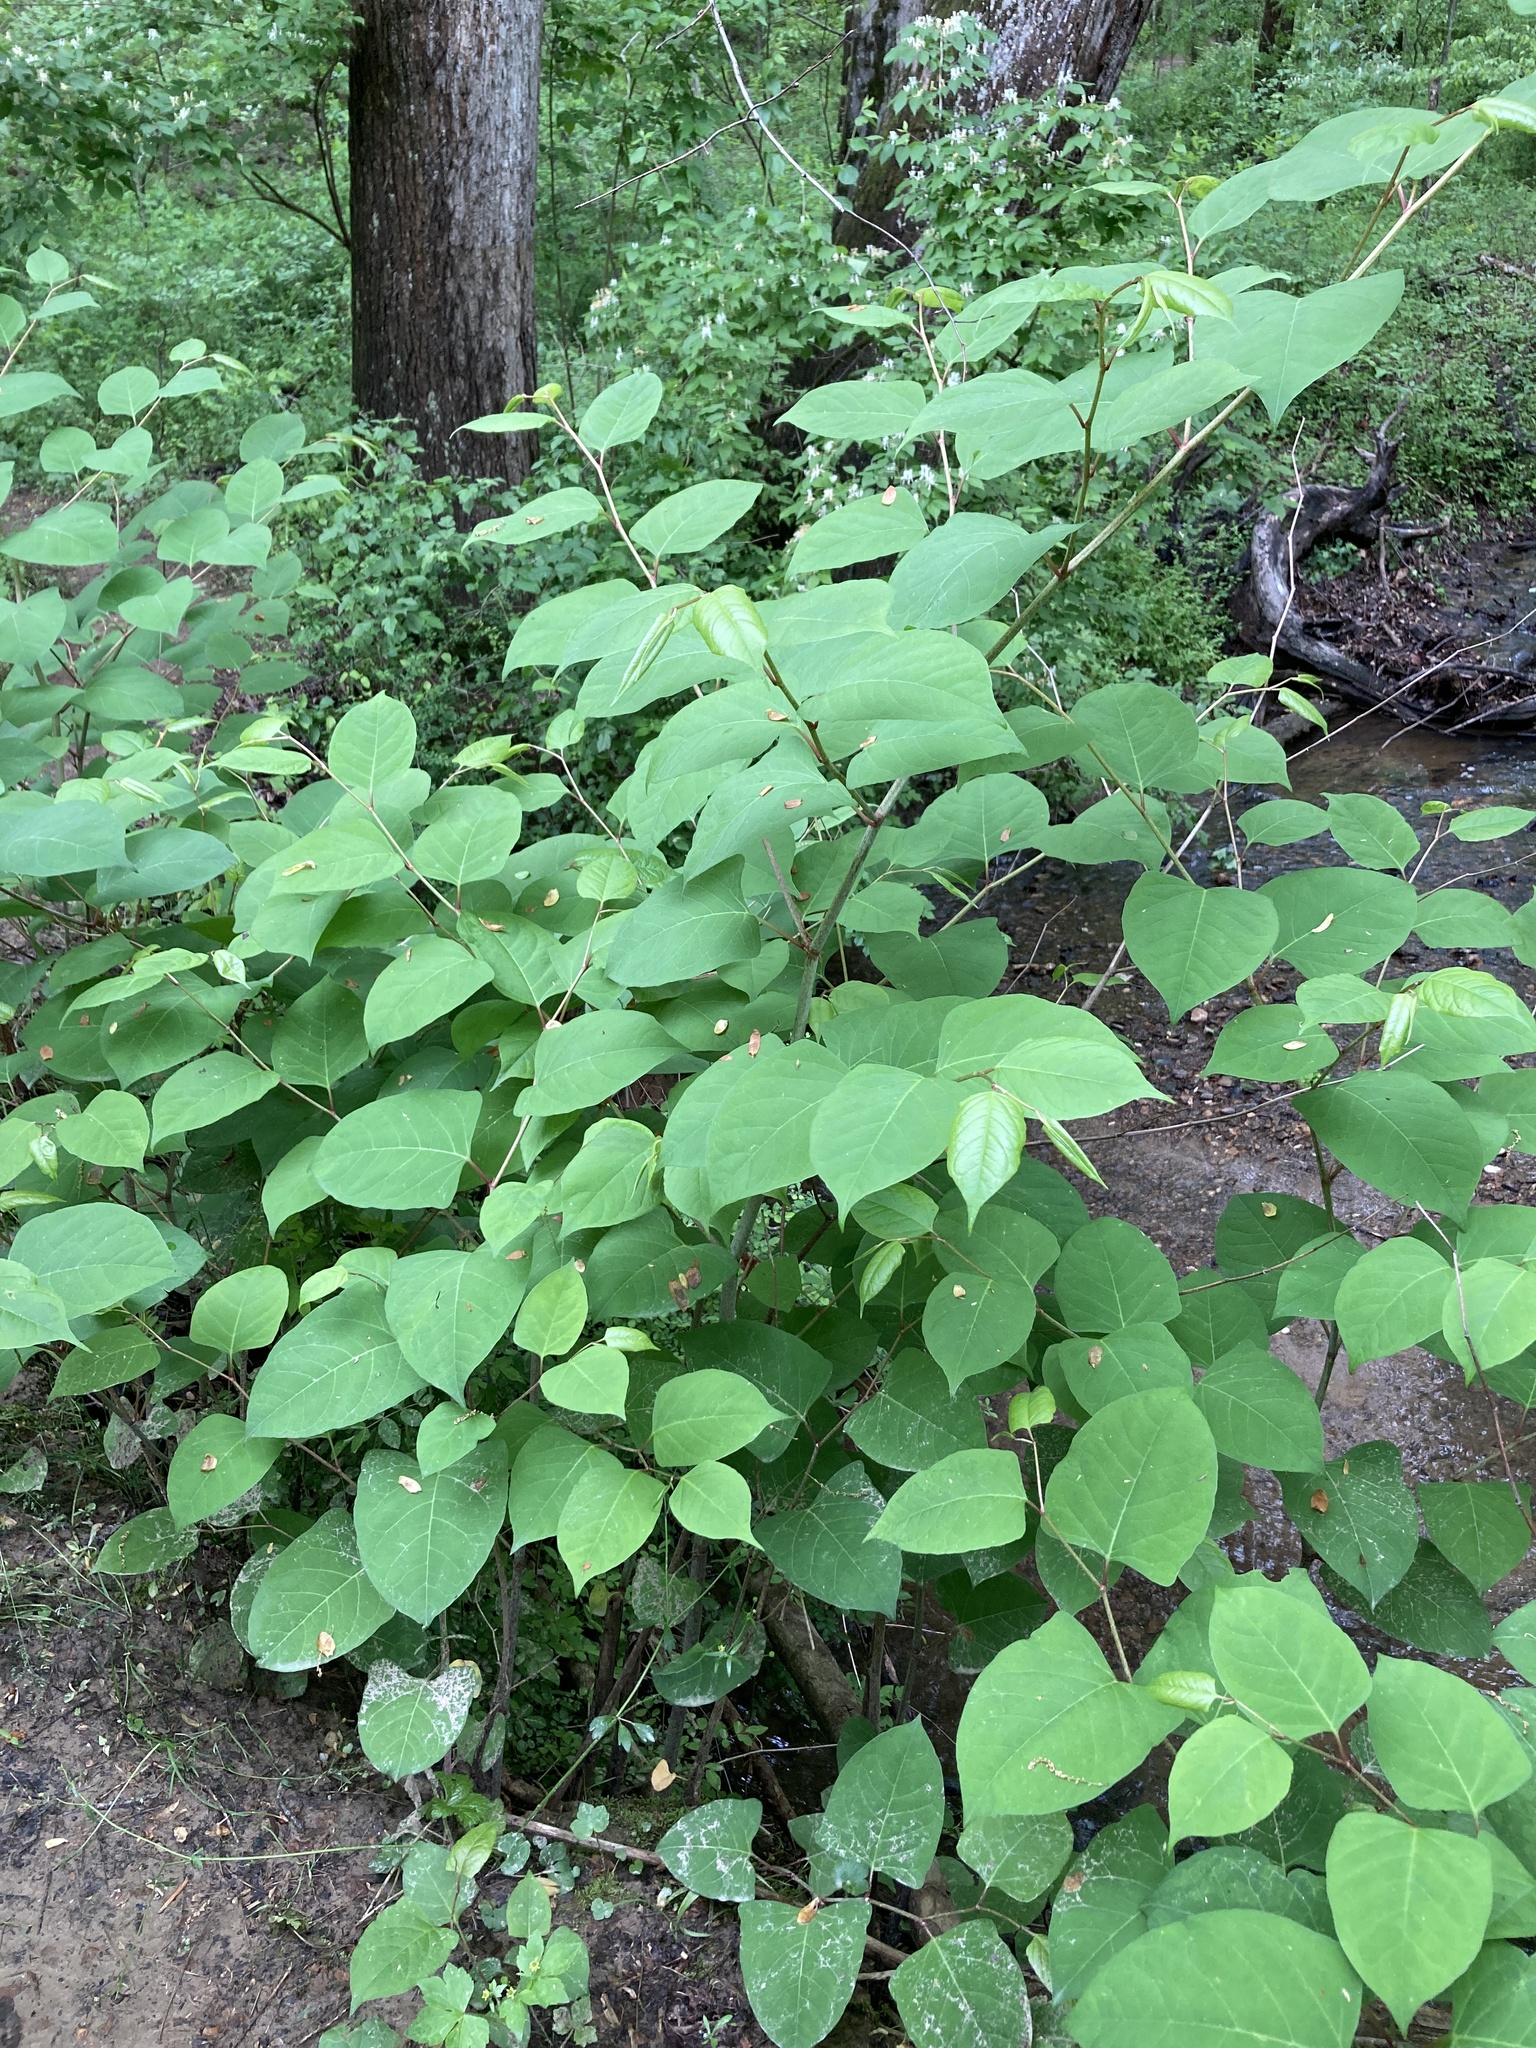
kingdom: Plantae
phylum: Tracheophyta
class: Magnoliopsida
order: Caryophyllales
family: Polygonaceae
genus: Reynoutria
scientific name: Reynoutria japonica
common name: Japanese knotweed
